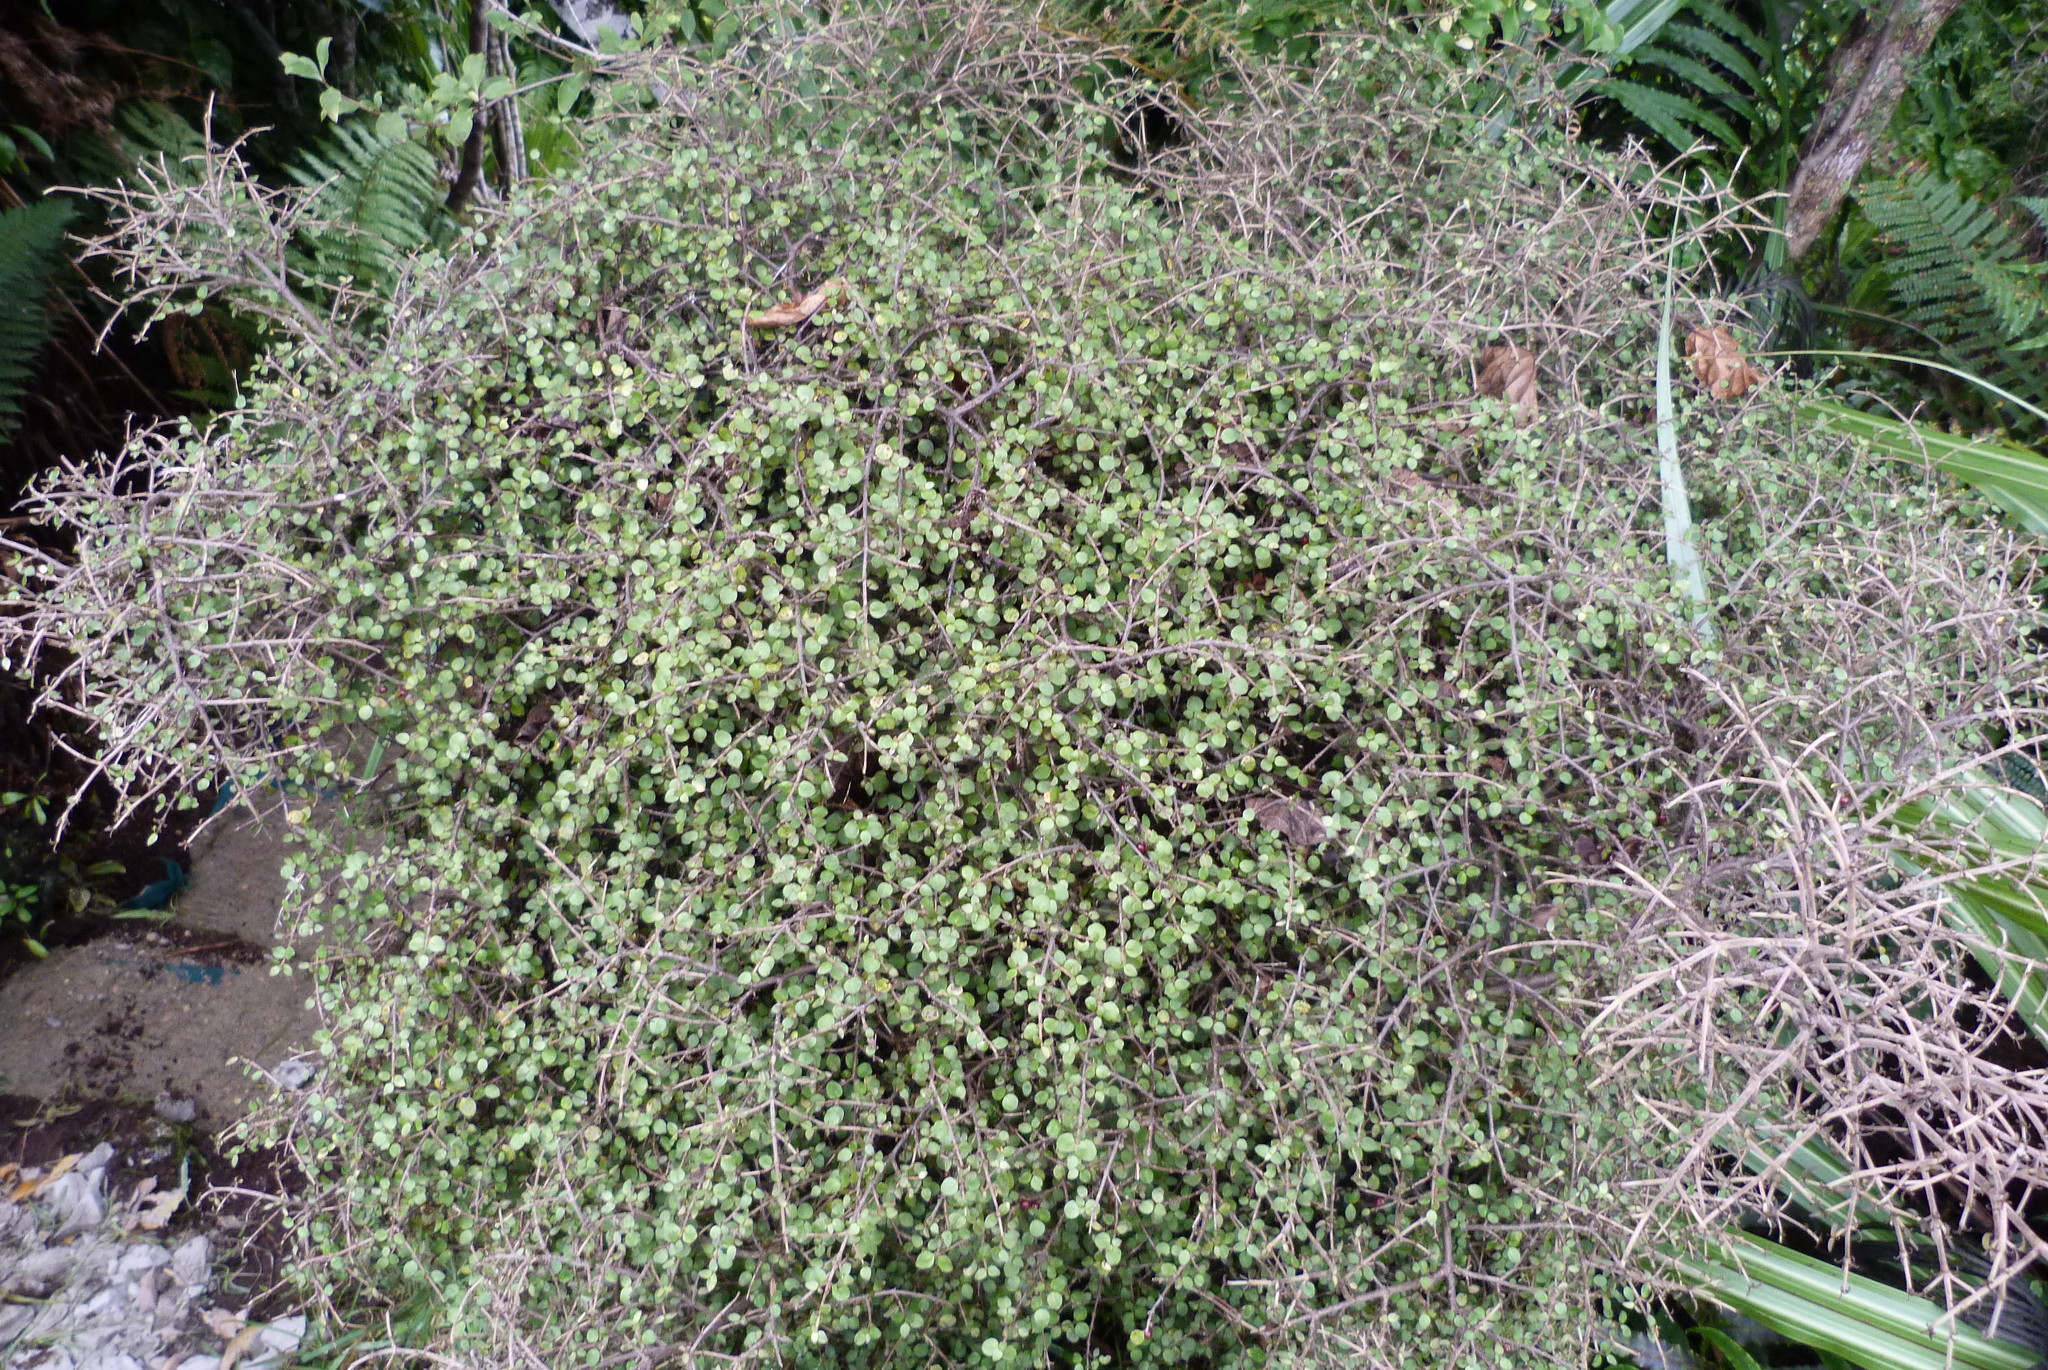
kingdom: Plantae
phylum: Tracheophyta
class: Magnoliopsida
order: Gentianales
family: Rubiaceae
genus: Coprosma
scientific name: Coprosma rhamnoides
